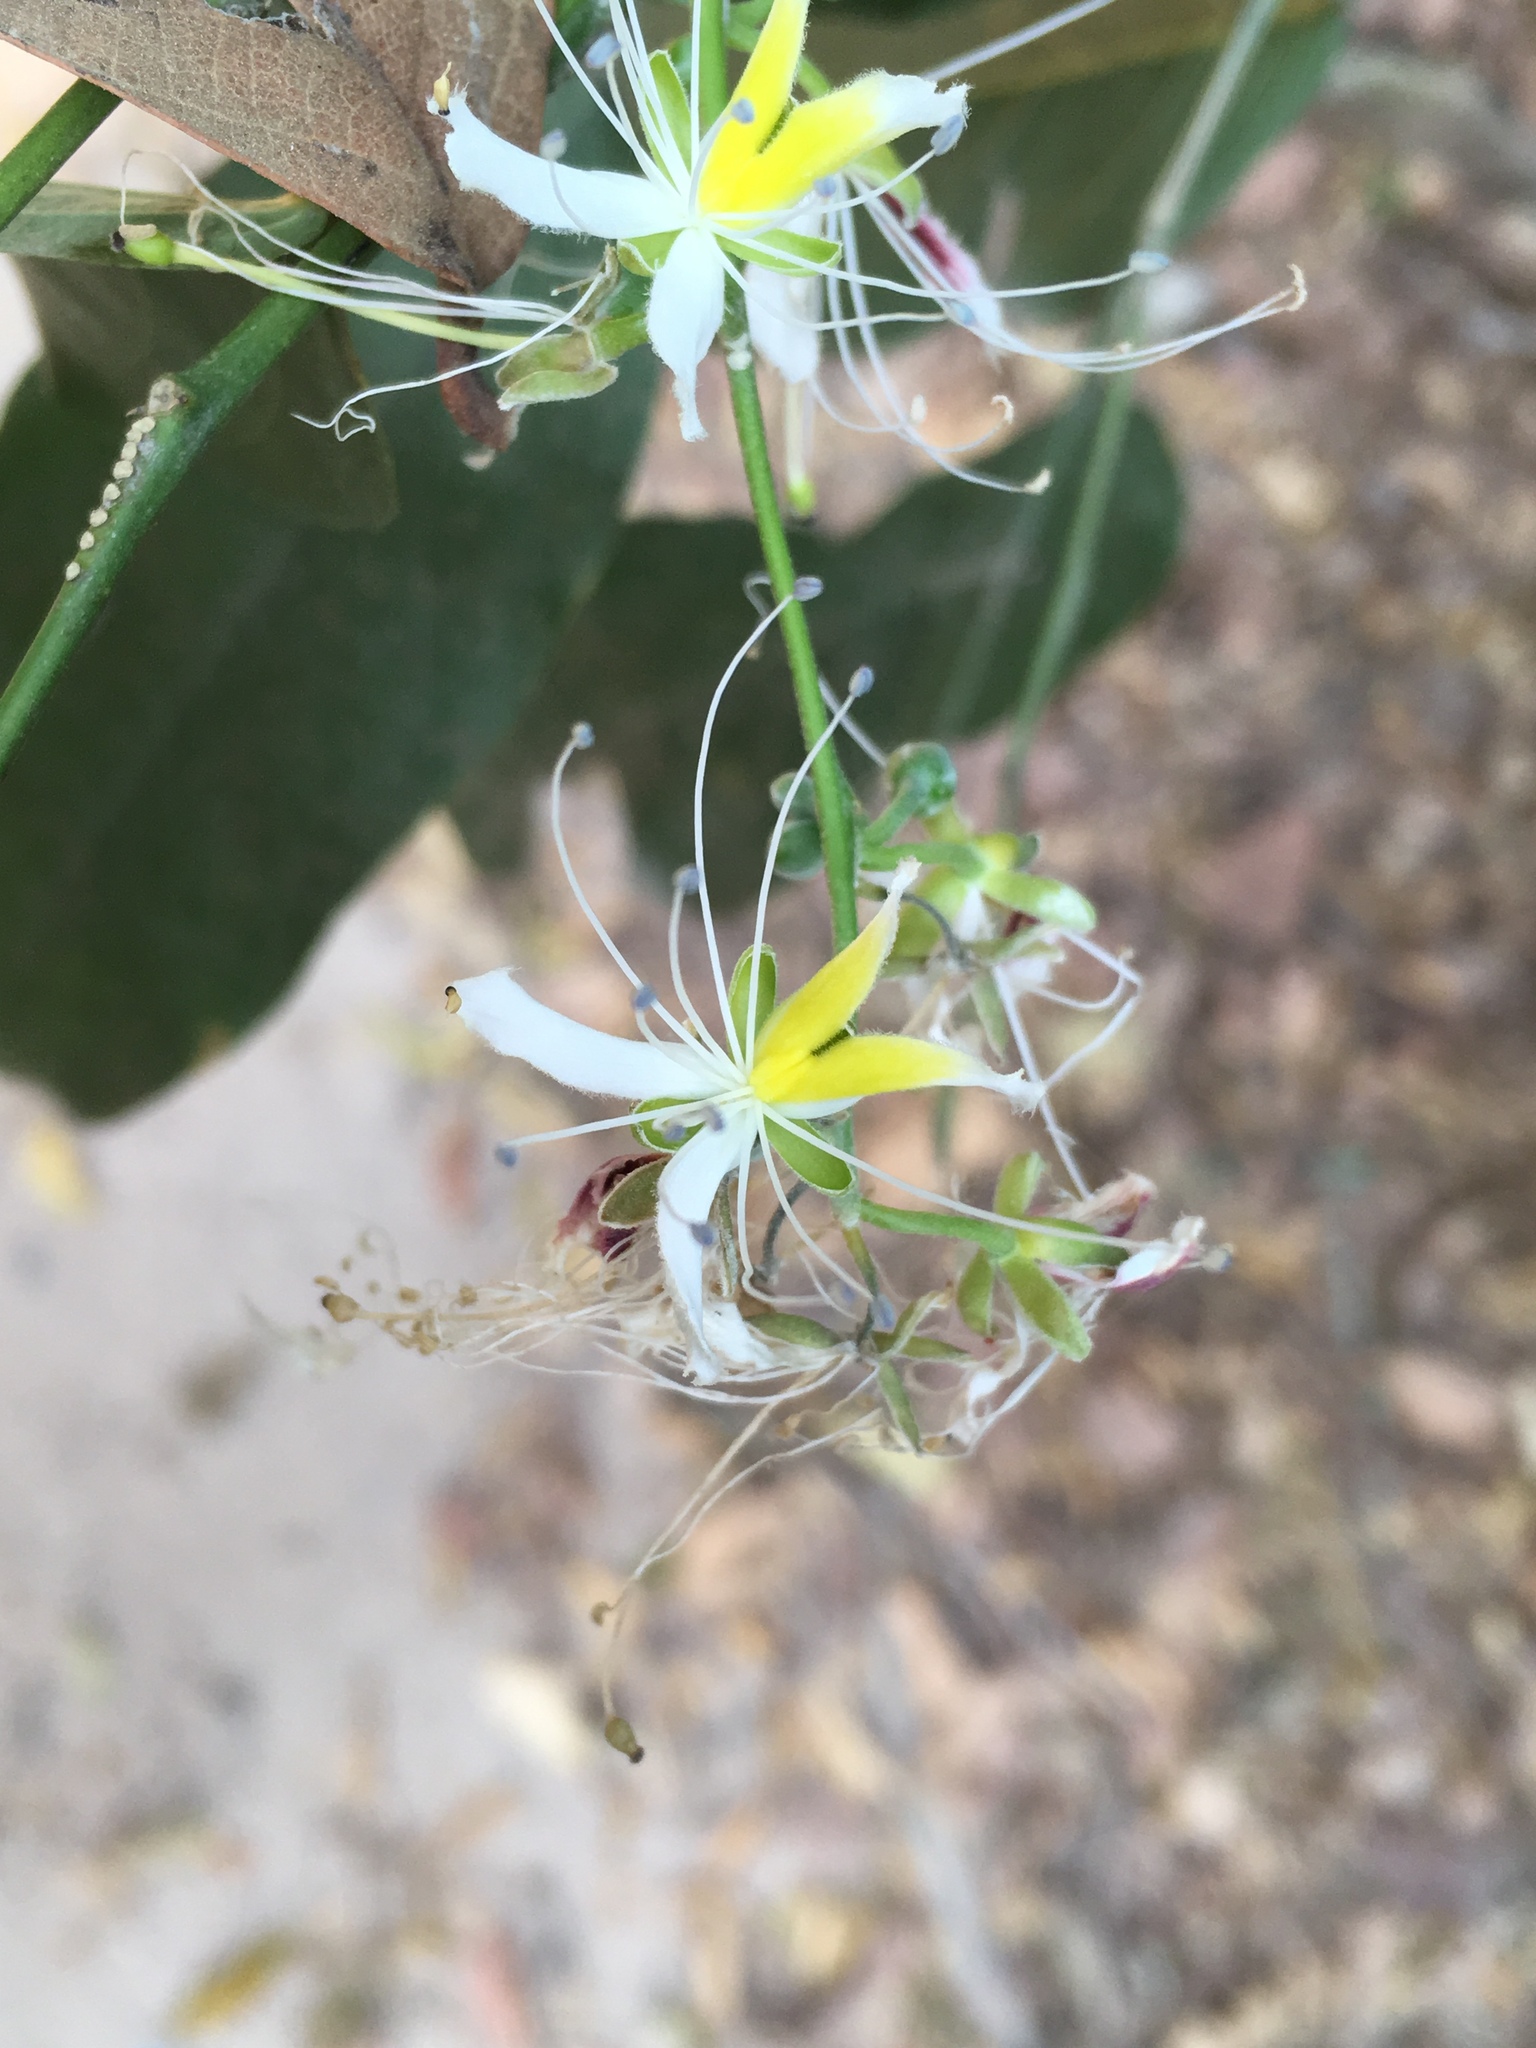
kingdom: Plantae
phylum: Tracheophyta
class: Magnoliopsida
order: Brassicales
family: Capparaceae
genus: Capparis
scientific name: Capparis micracantha
